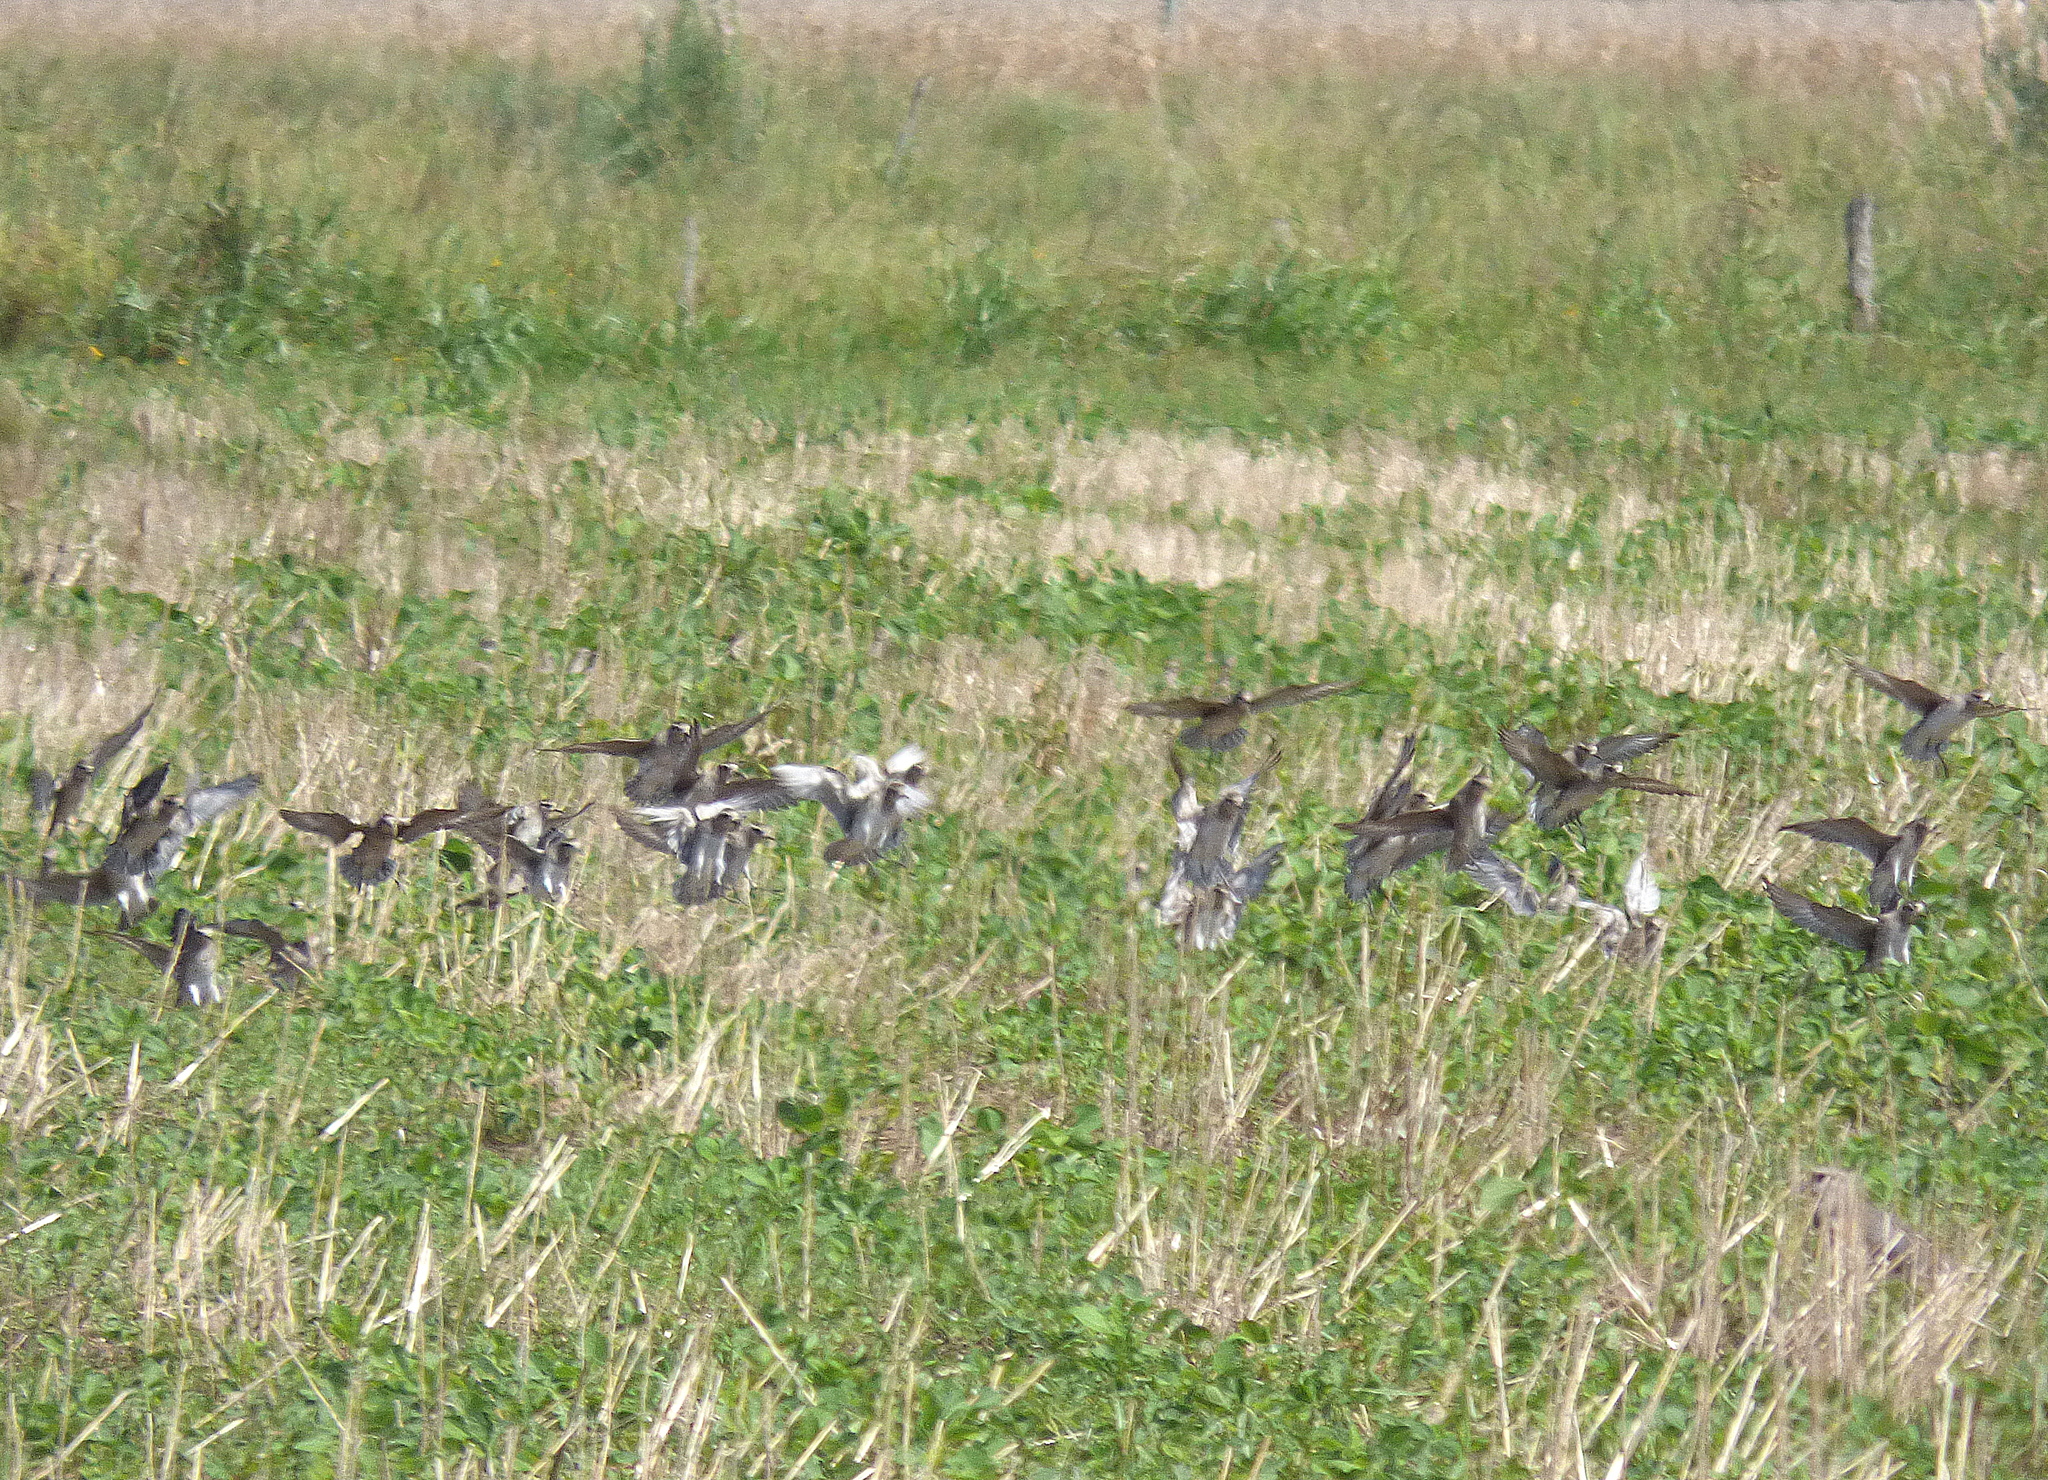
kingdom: Animalia
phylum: Chordata
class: Aves
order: Charadriiformes
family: Charadriidae
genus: Pluvialis
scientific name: Pluvialis dominica
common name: American golden plover
